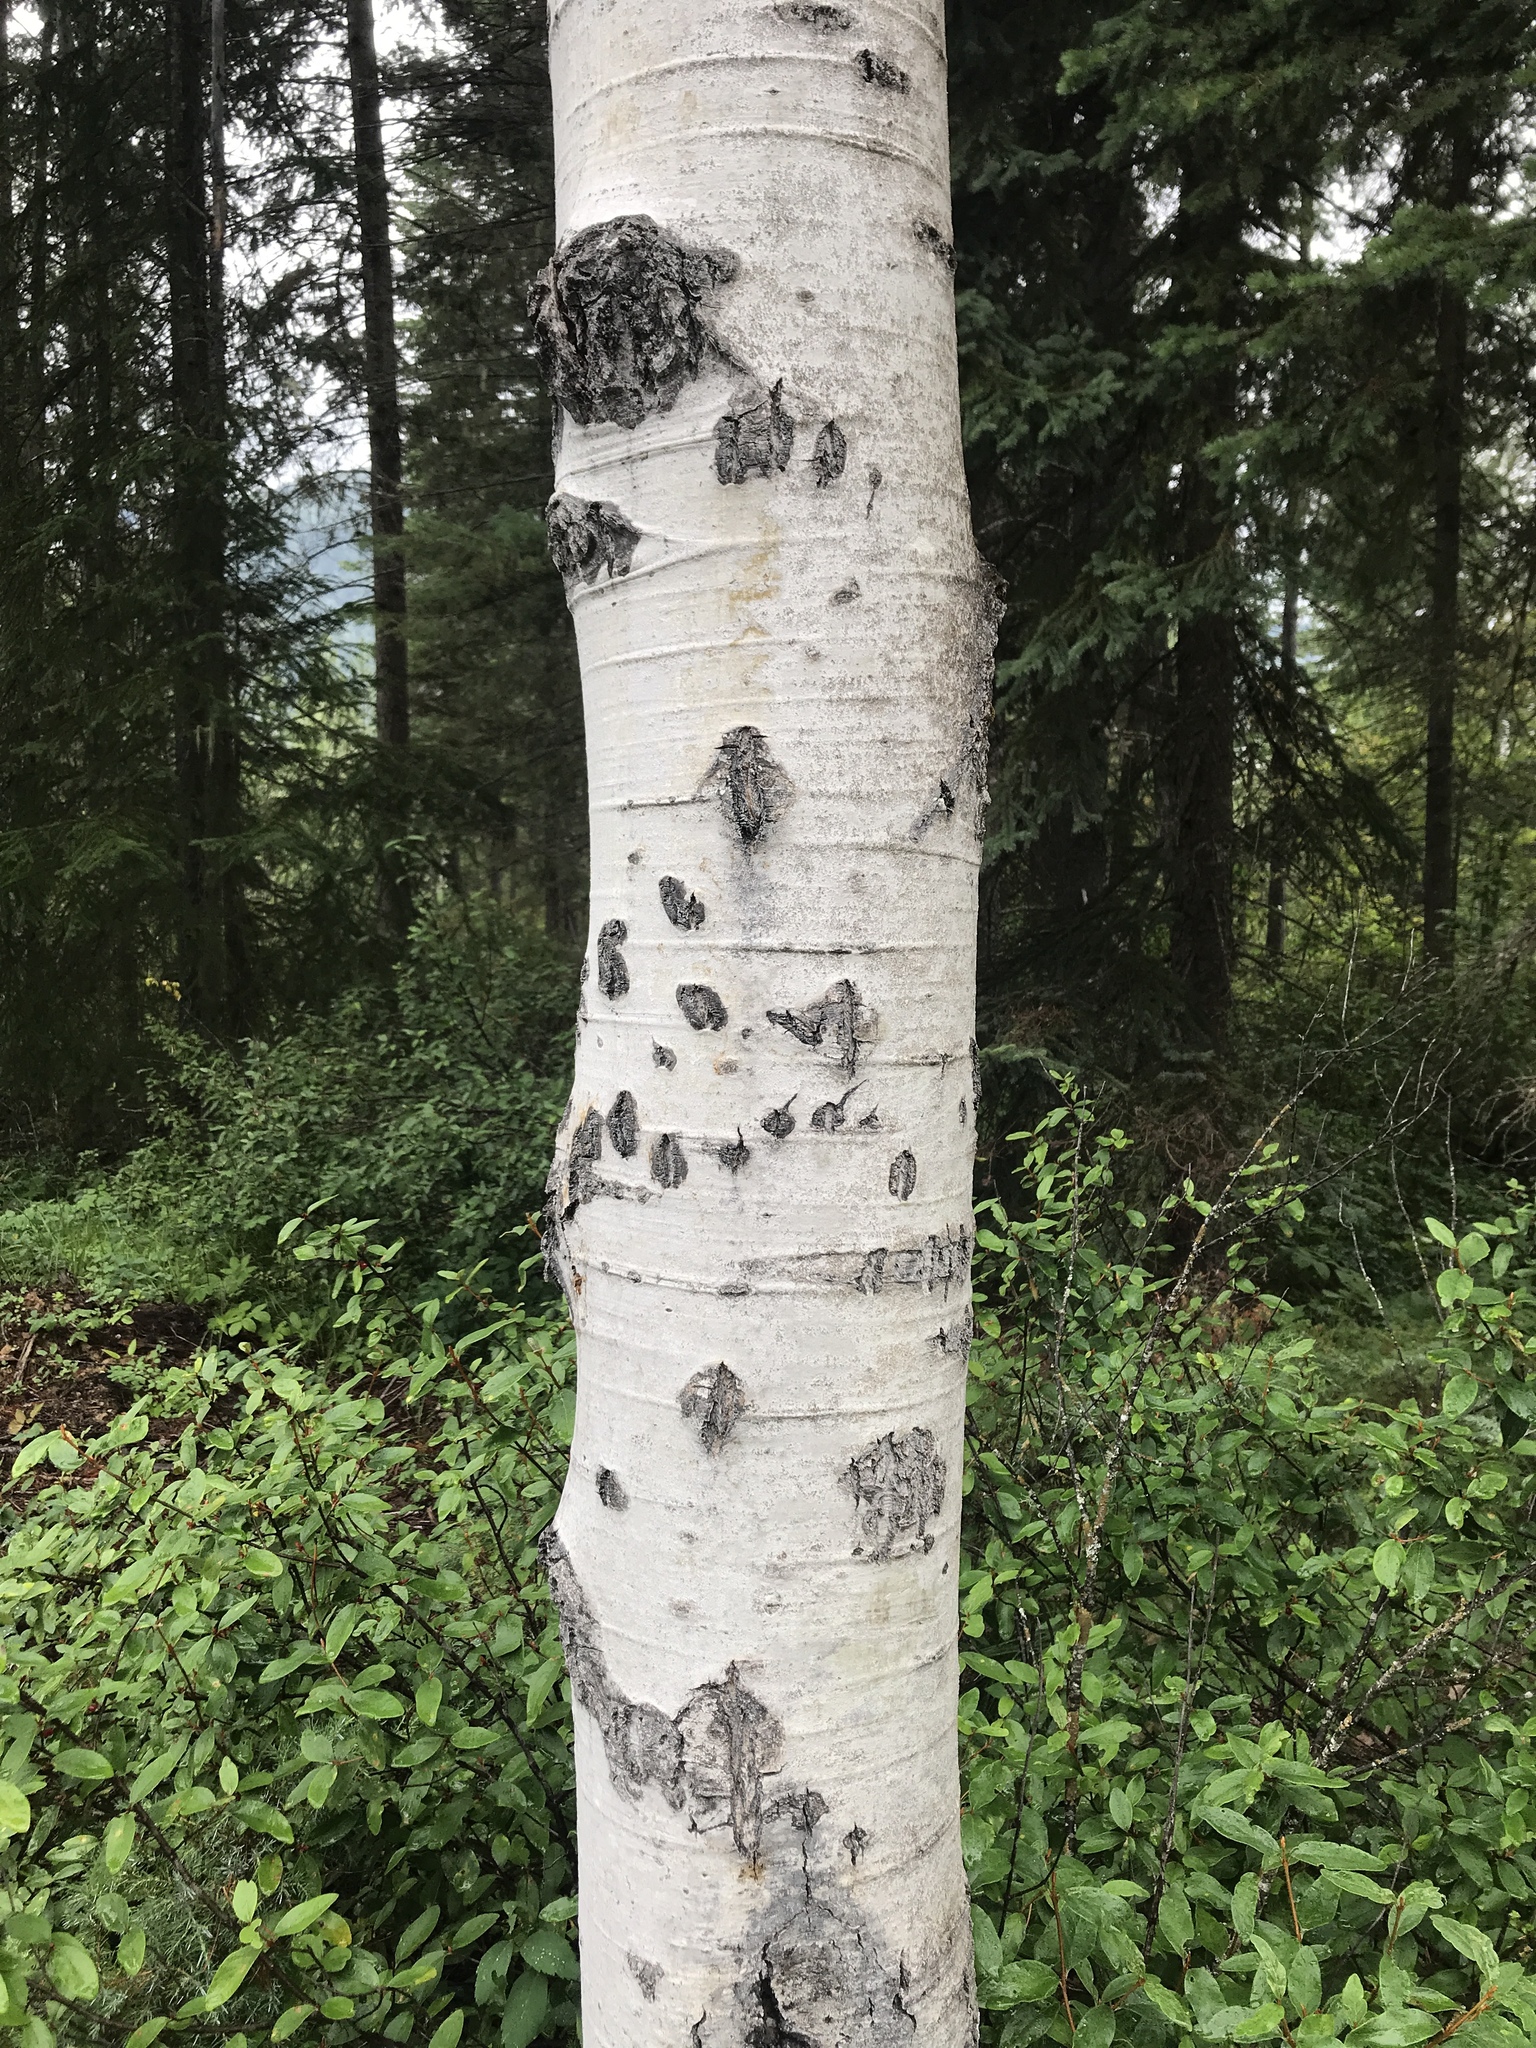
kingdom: Plantae
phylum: Tracheophyta
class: Magnoliopsida
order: Malpighiales
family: Salicaceae
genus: Populus
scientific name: Populus tremuloides
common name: Quaking aspen
